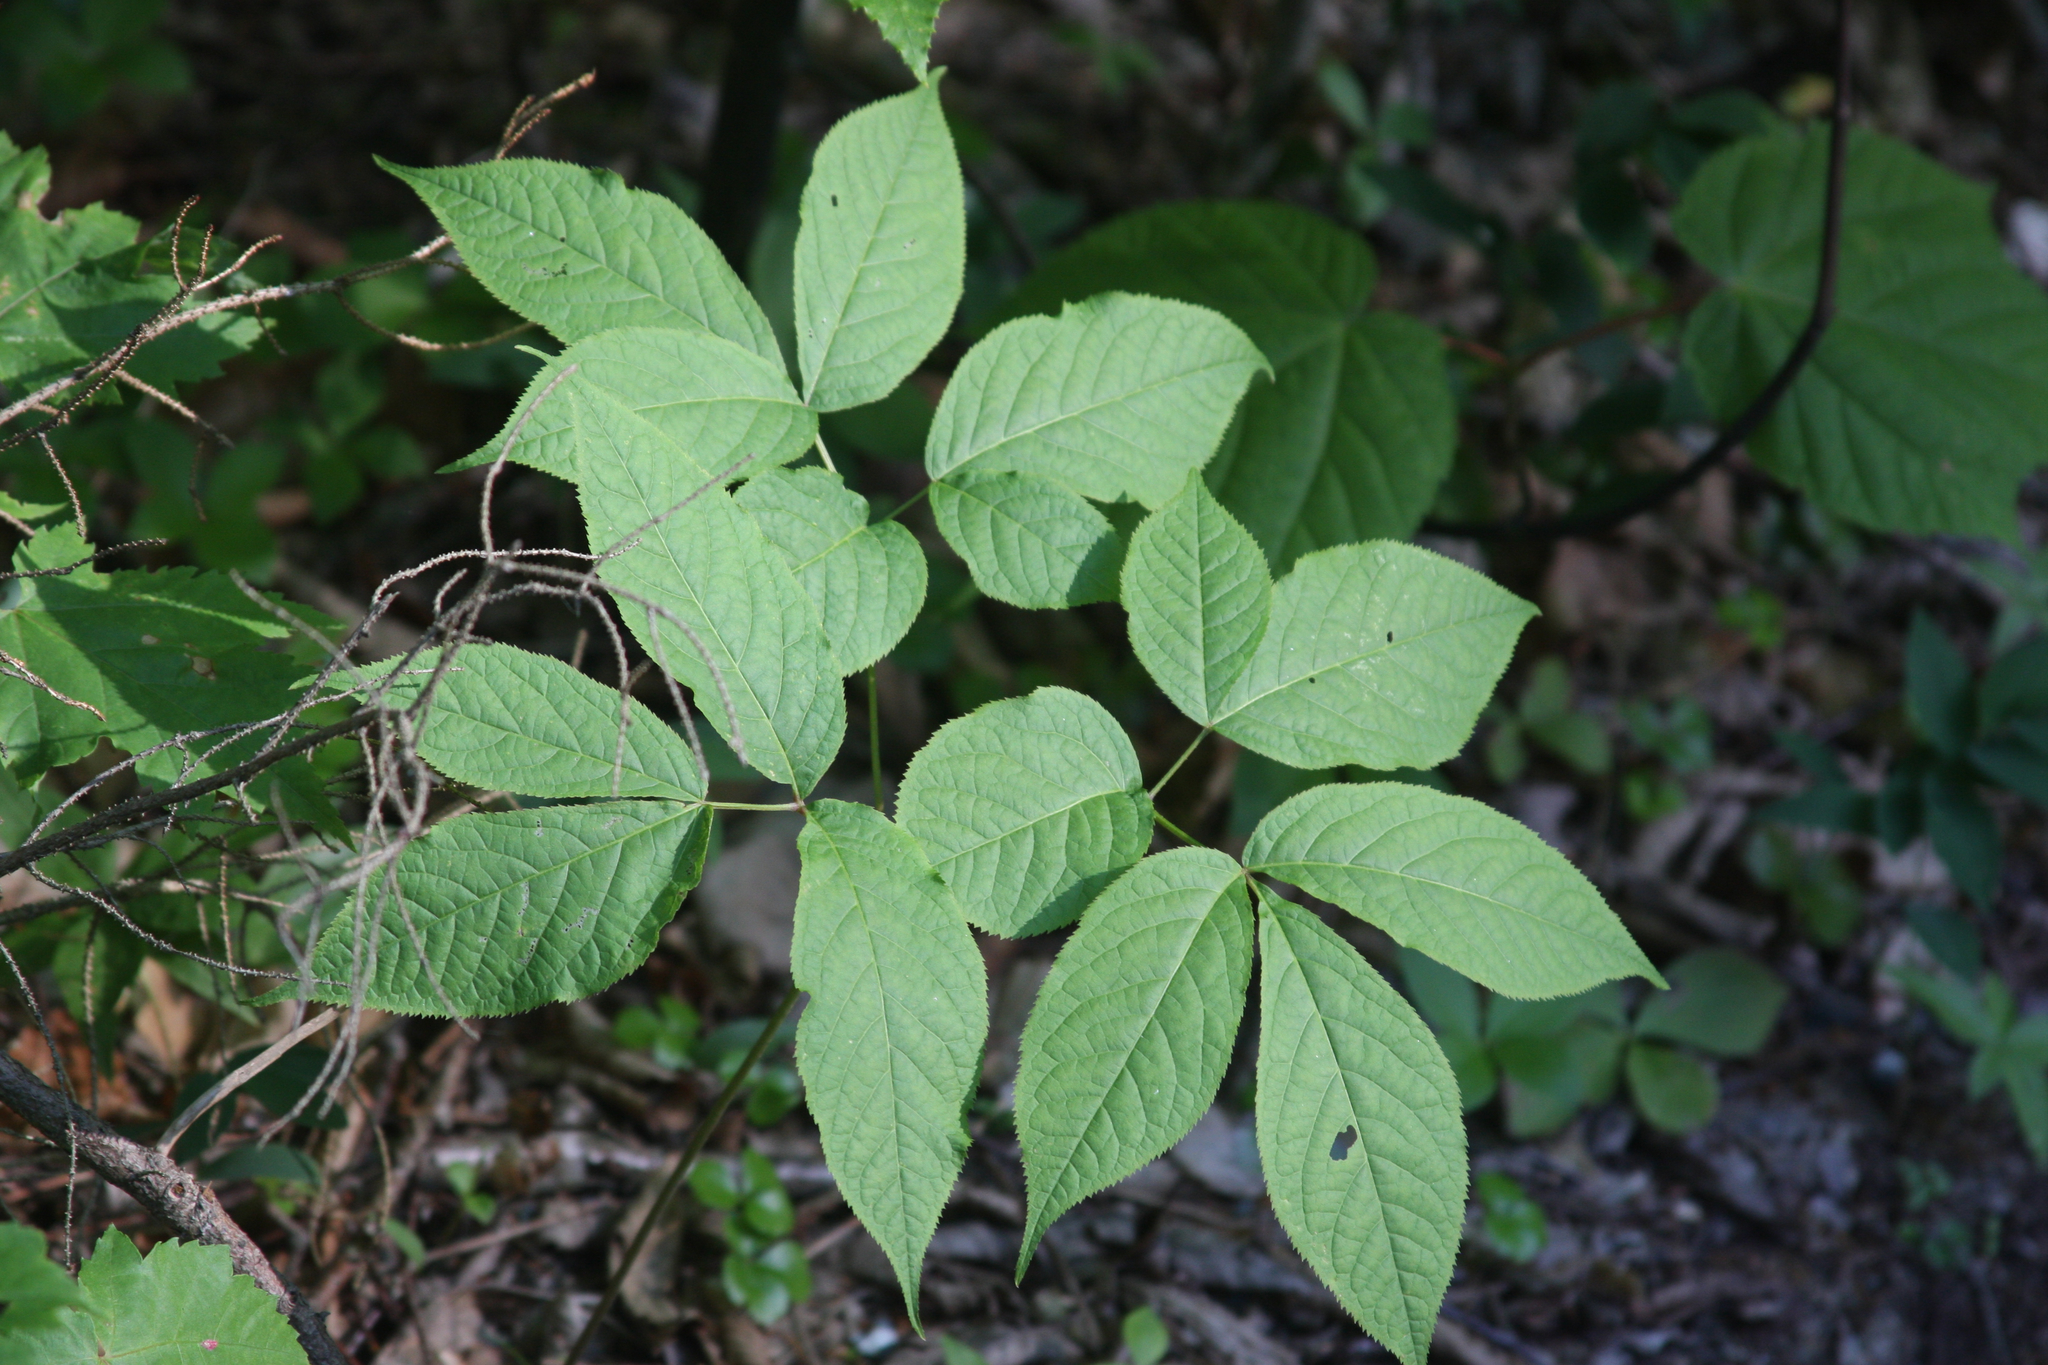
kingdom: Plantae
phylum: Tracheophyta
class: Magnoliopsida
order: Apiales
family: Araliaceae
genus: Aralia
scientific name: Aralia nudicaulis
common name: Wild sarsaparilla
